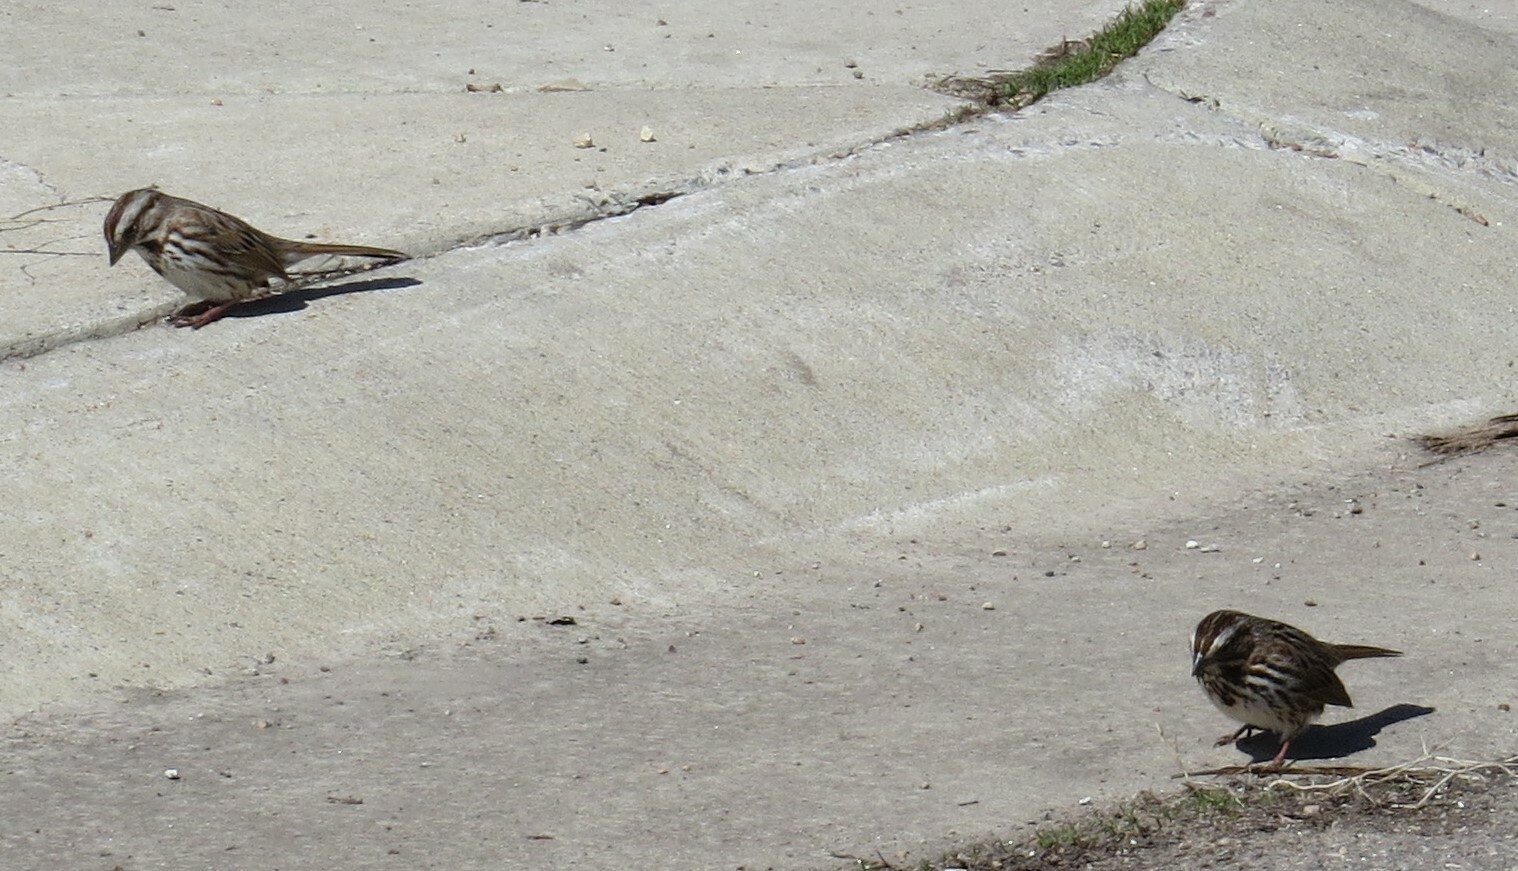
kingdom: Animalia
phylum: Chordata
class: Aves
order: Passeriformes
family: Passerellidae
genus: Melospiza
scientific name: Melospiza melodia
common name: Song sparrow
